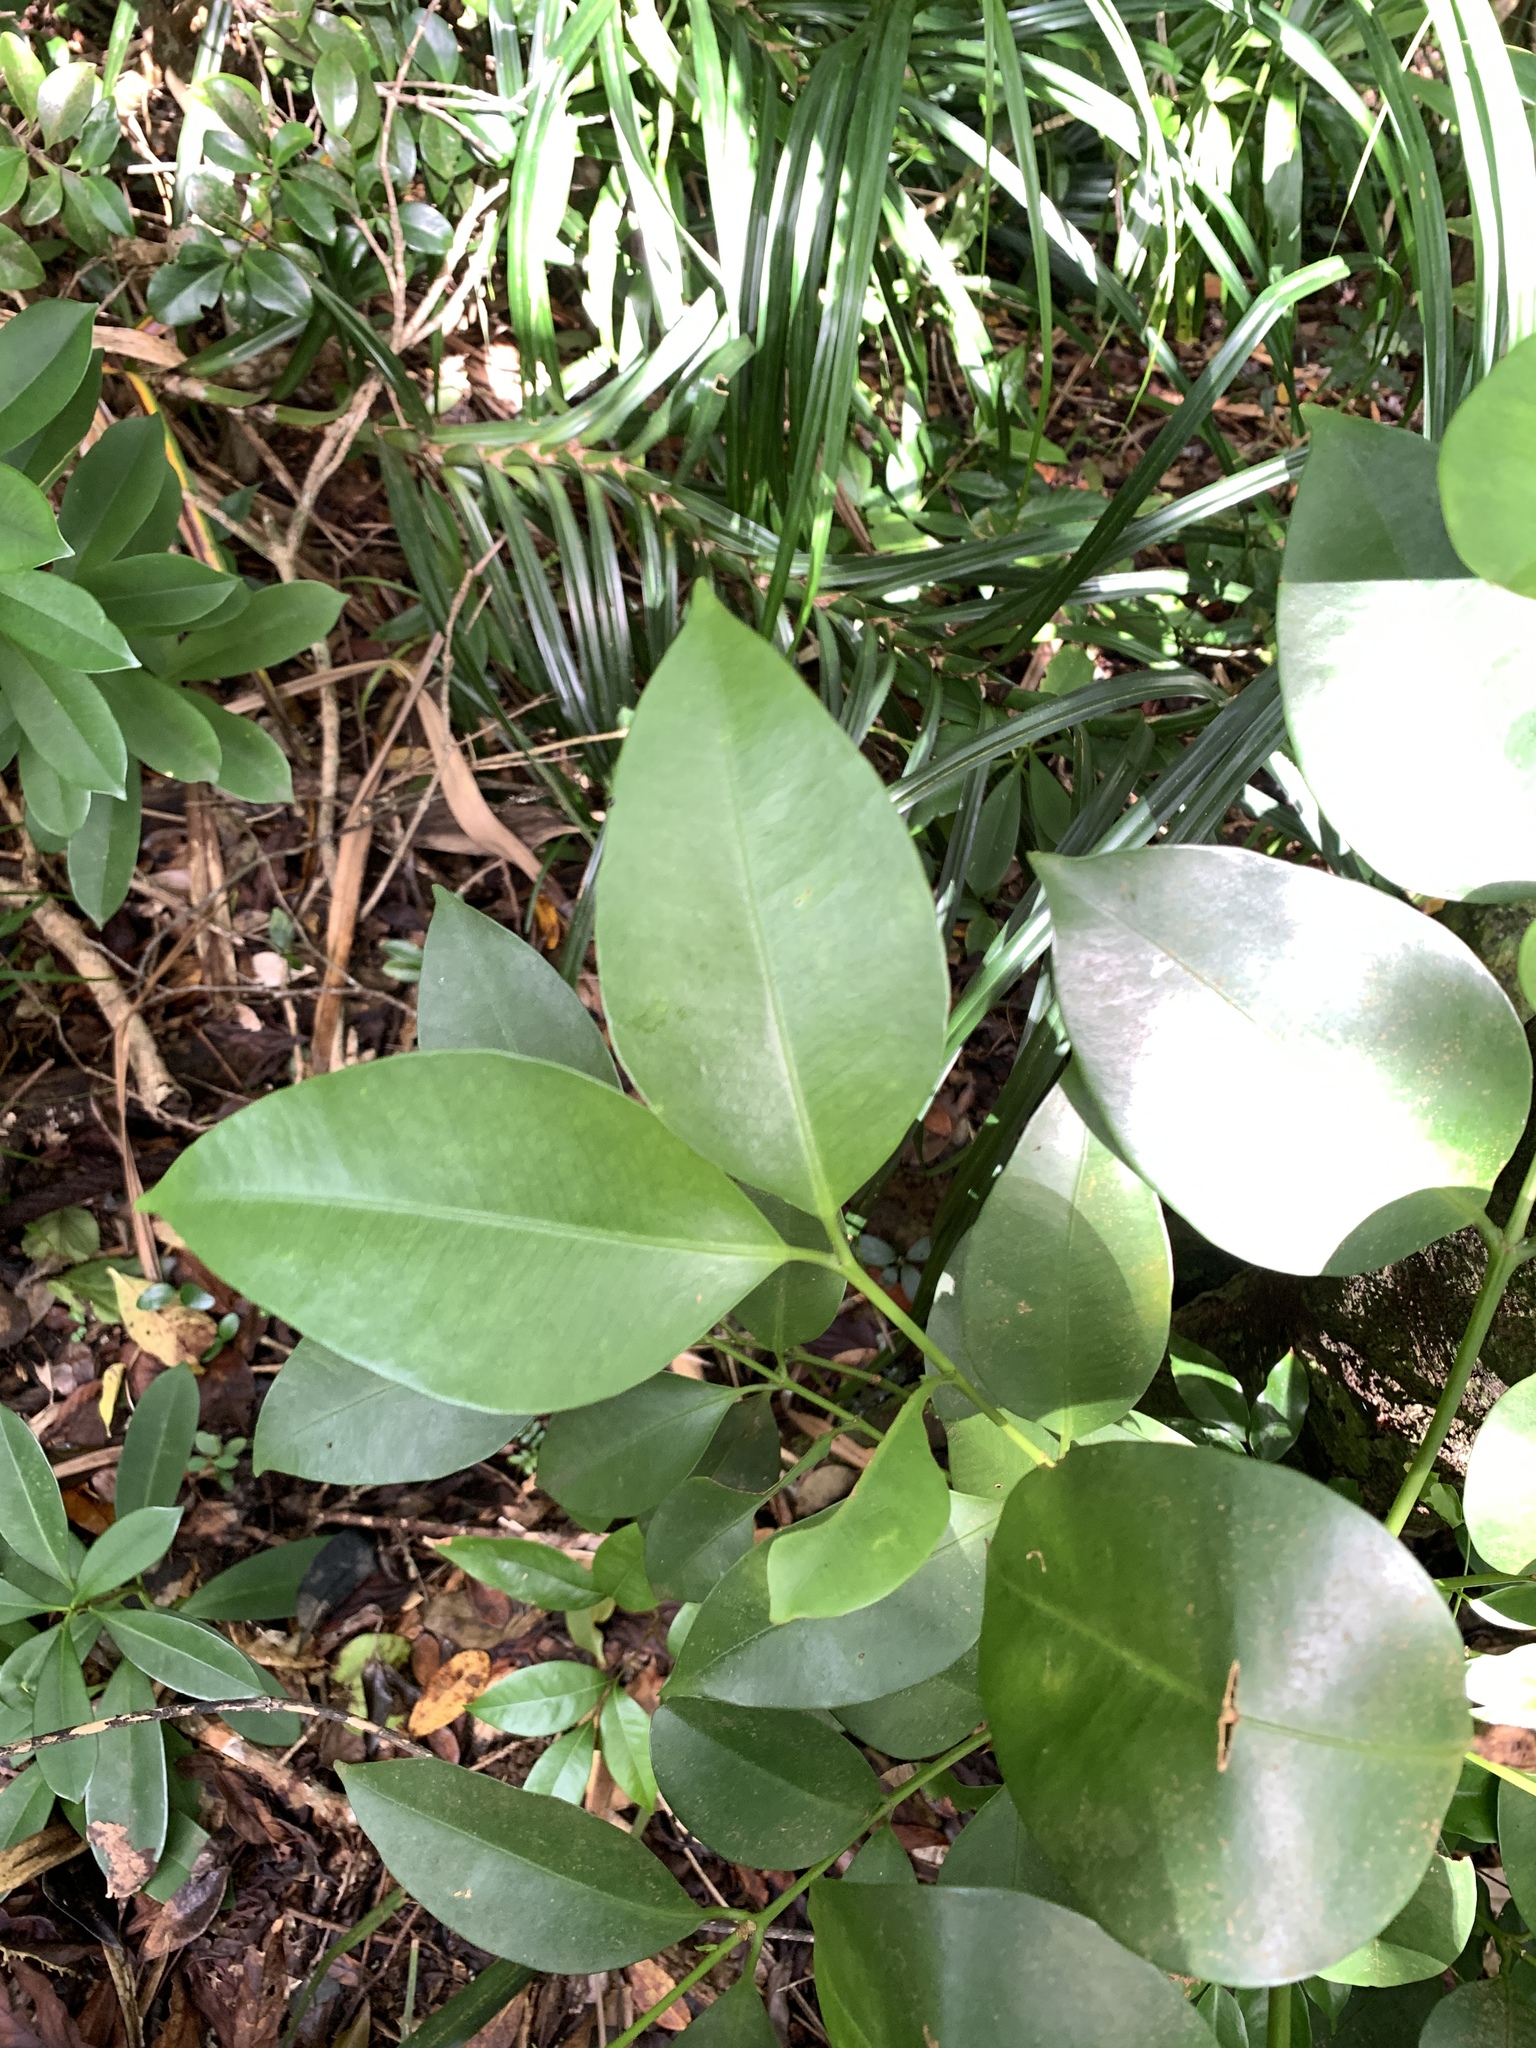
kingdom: Plantae
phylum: Tracheophyta
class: Magnoliopsida
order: Malpighiales
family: Clusiaceae
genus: Garcinia
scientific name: Garcinia linii
